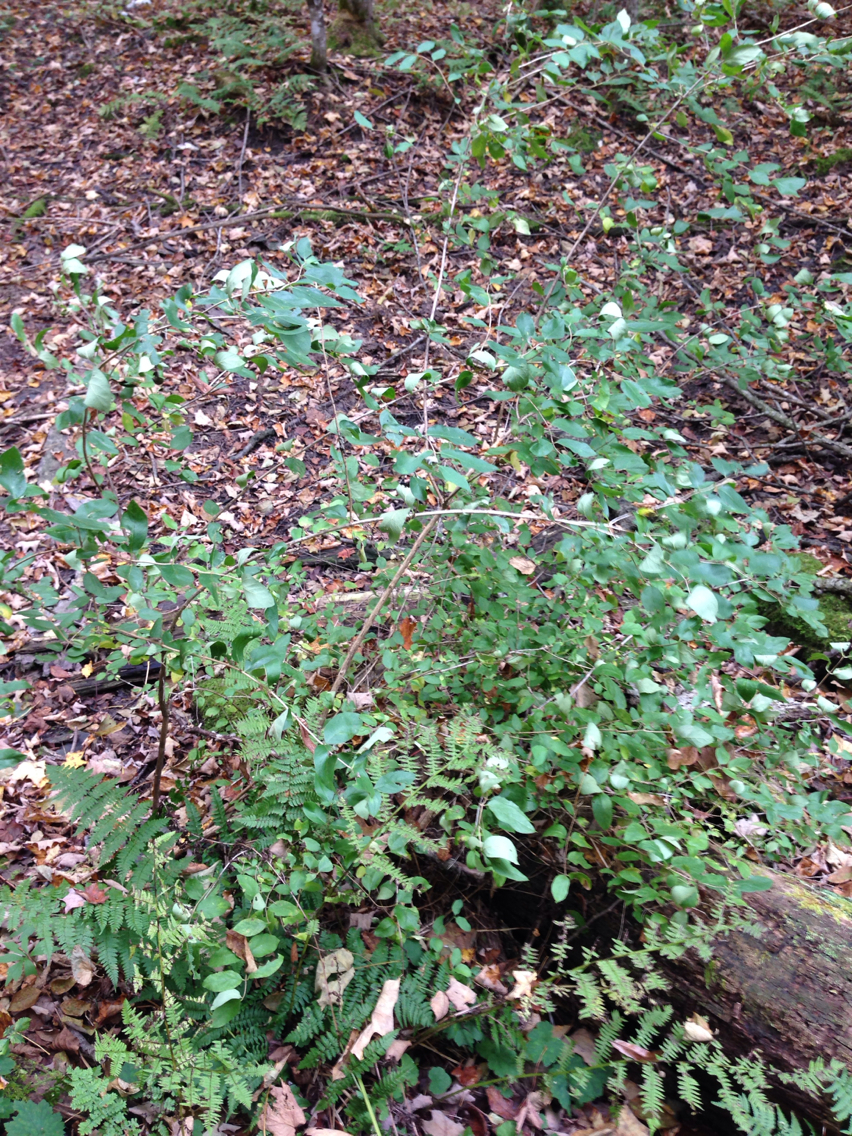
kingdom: Plantae
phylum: Tracheophyta
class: Magnoliopsida
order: Dipsacales
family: Caprifoliaceae
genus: Lonicera
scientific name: Lonicera morrowii
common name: Morrow's honeysuckle
